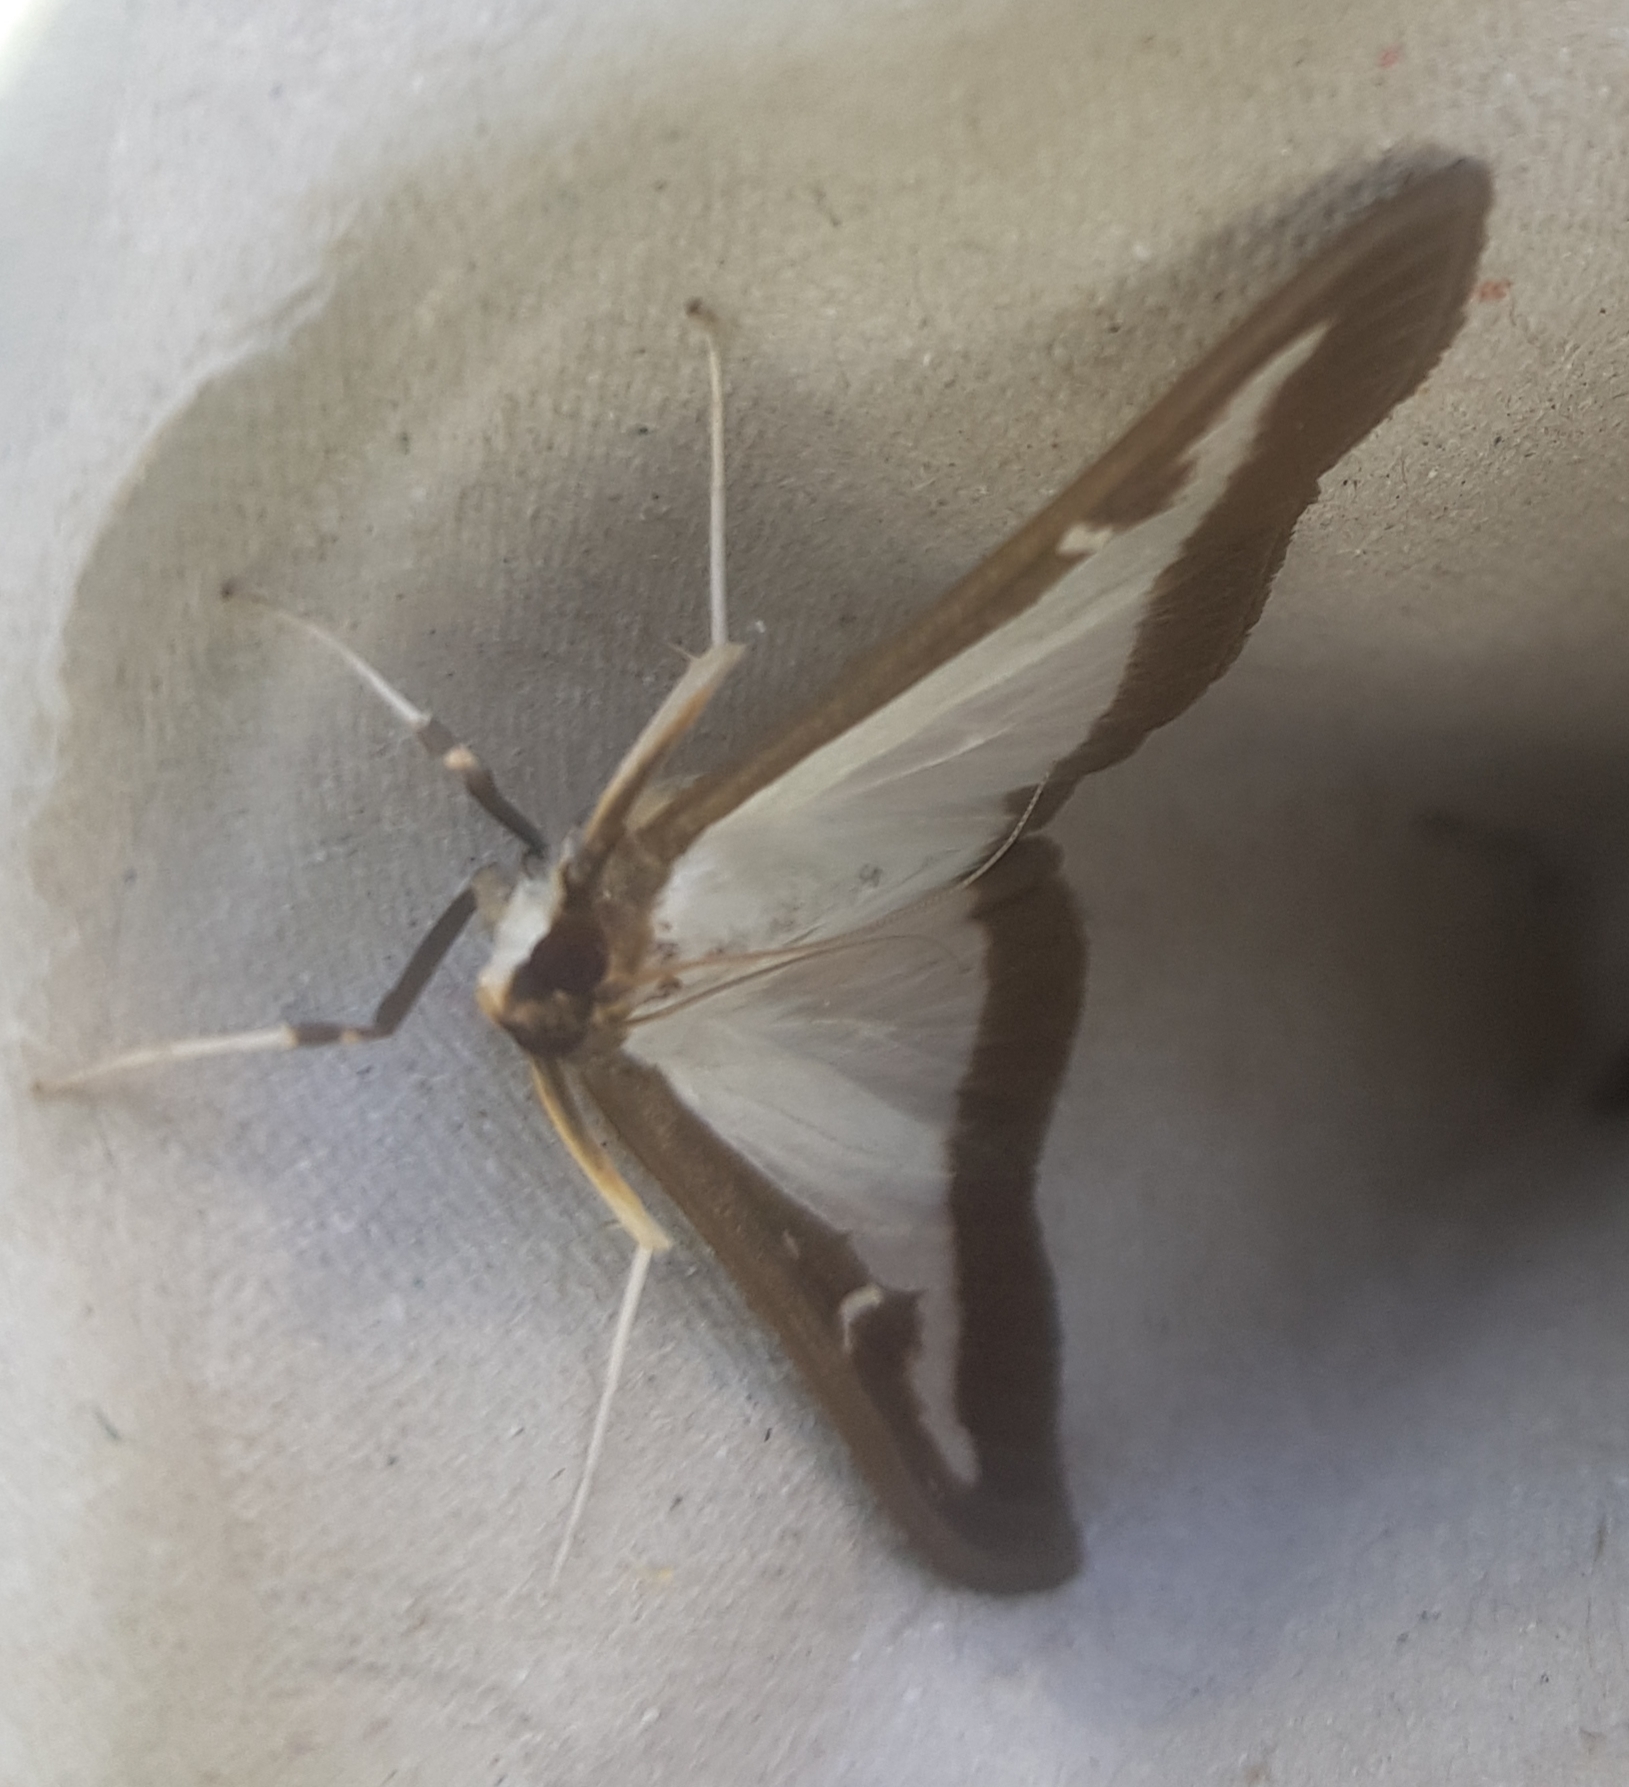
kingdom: Animalia
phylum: Arthropoda
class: Insecta
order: Lepidoptera
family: Crambidae
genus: Cydalima
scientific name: Cydalima perspectalis
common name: Box tree moth
